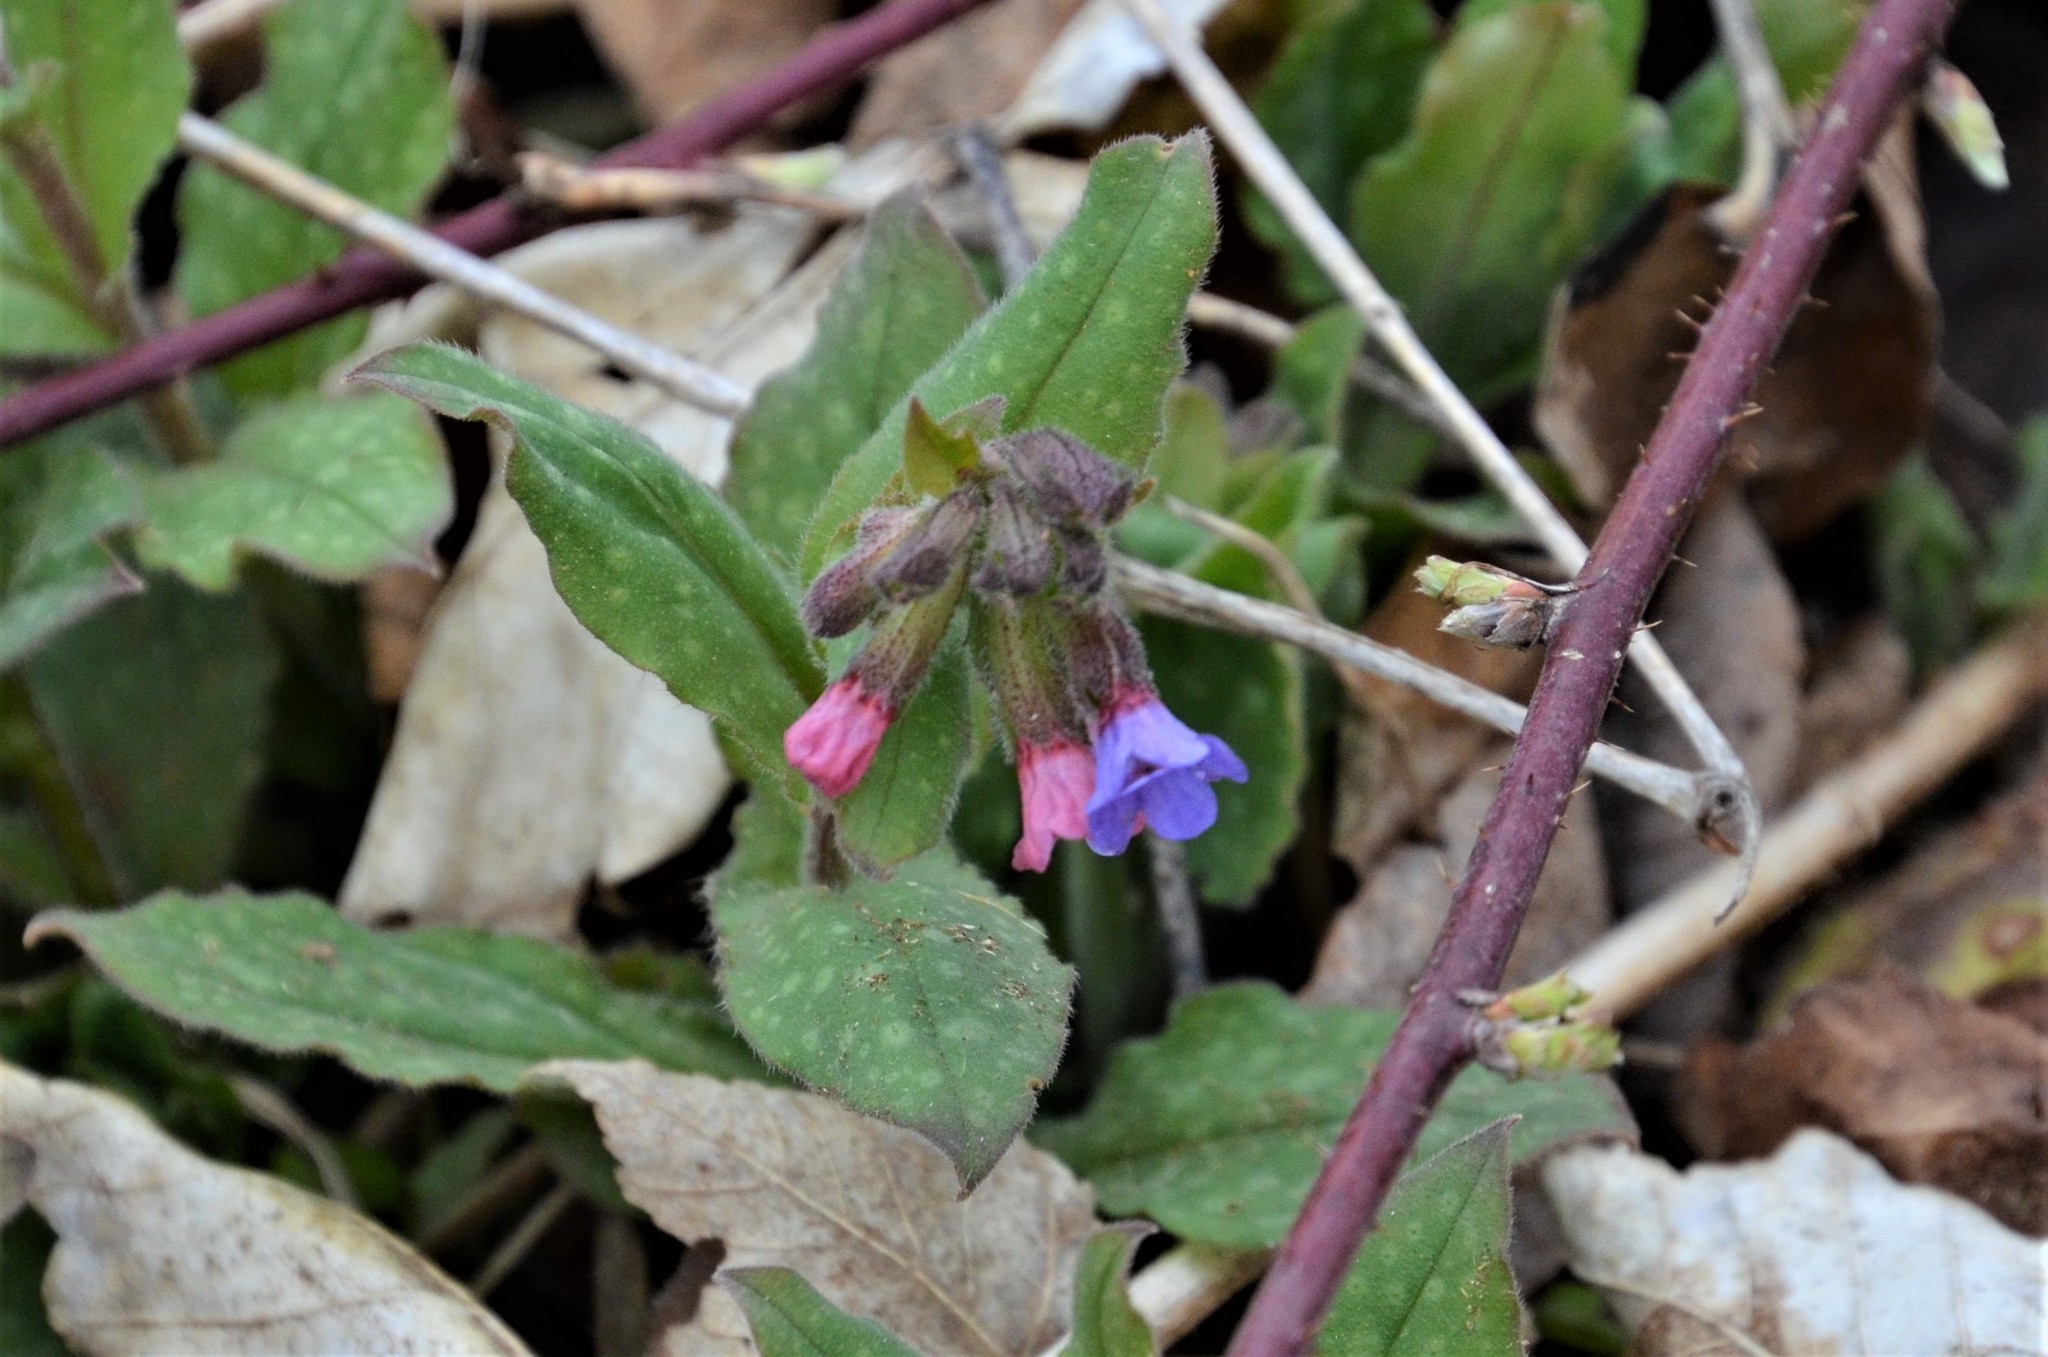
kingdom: Plantae
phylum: Tracheophyta
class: Magnoliopsida
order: Boraginales
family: Boraginaceae
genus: Pulmonaria
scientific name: Pulmonaria officinalis
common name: Lungwort
